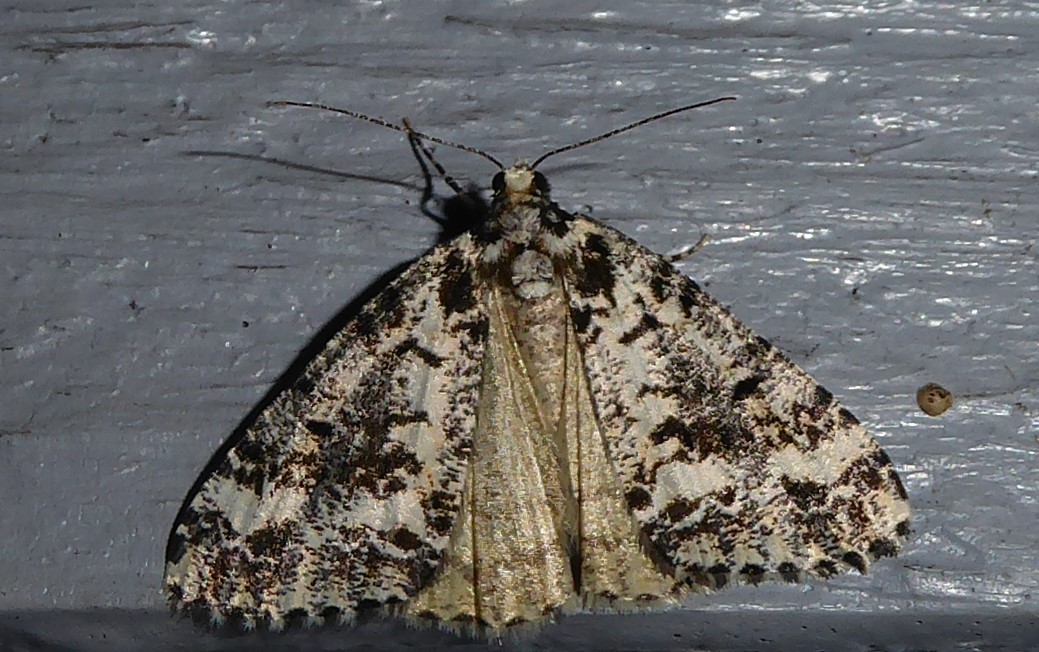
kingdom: Animalia
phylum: Arthropoda
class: Insecta
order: Lepidoptera
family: Geometridae
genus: Pseudocoremia
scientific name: Pseudocoremia leucelaea
